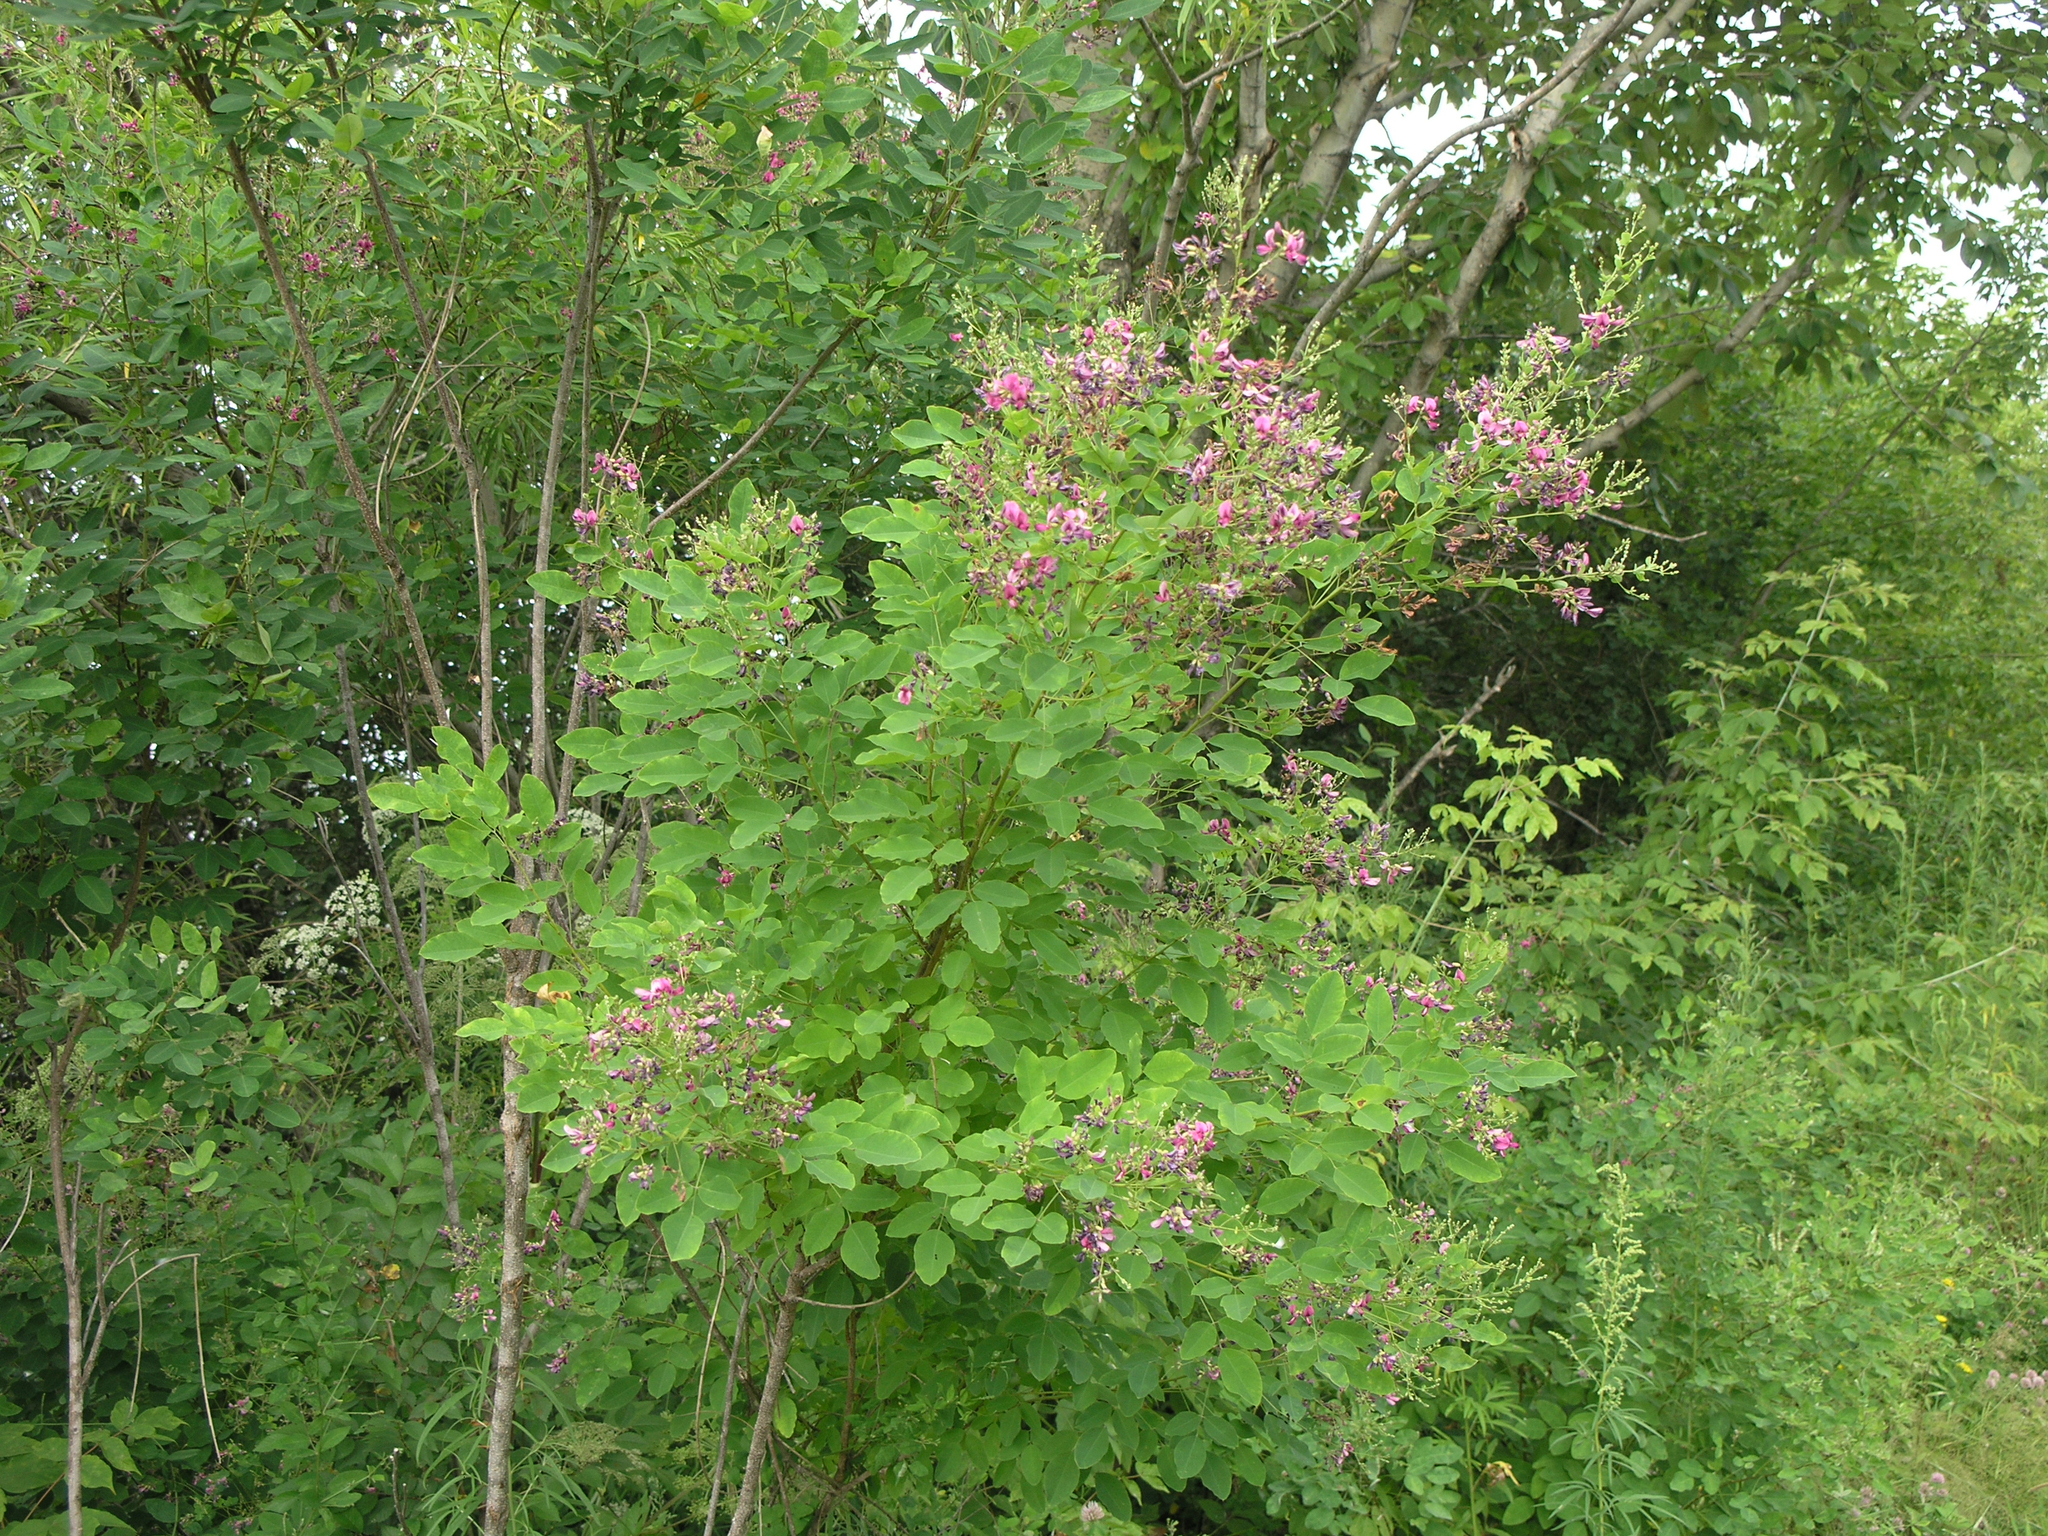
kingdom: Plantae
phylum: Tracheophyta
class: Magnoliopsida
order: Fabales
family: Fabaceae
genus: Lespedeza
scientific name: Lespedeza bicolor
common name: Shrub lespedeza
